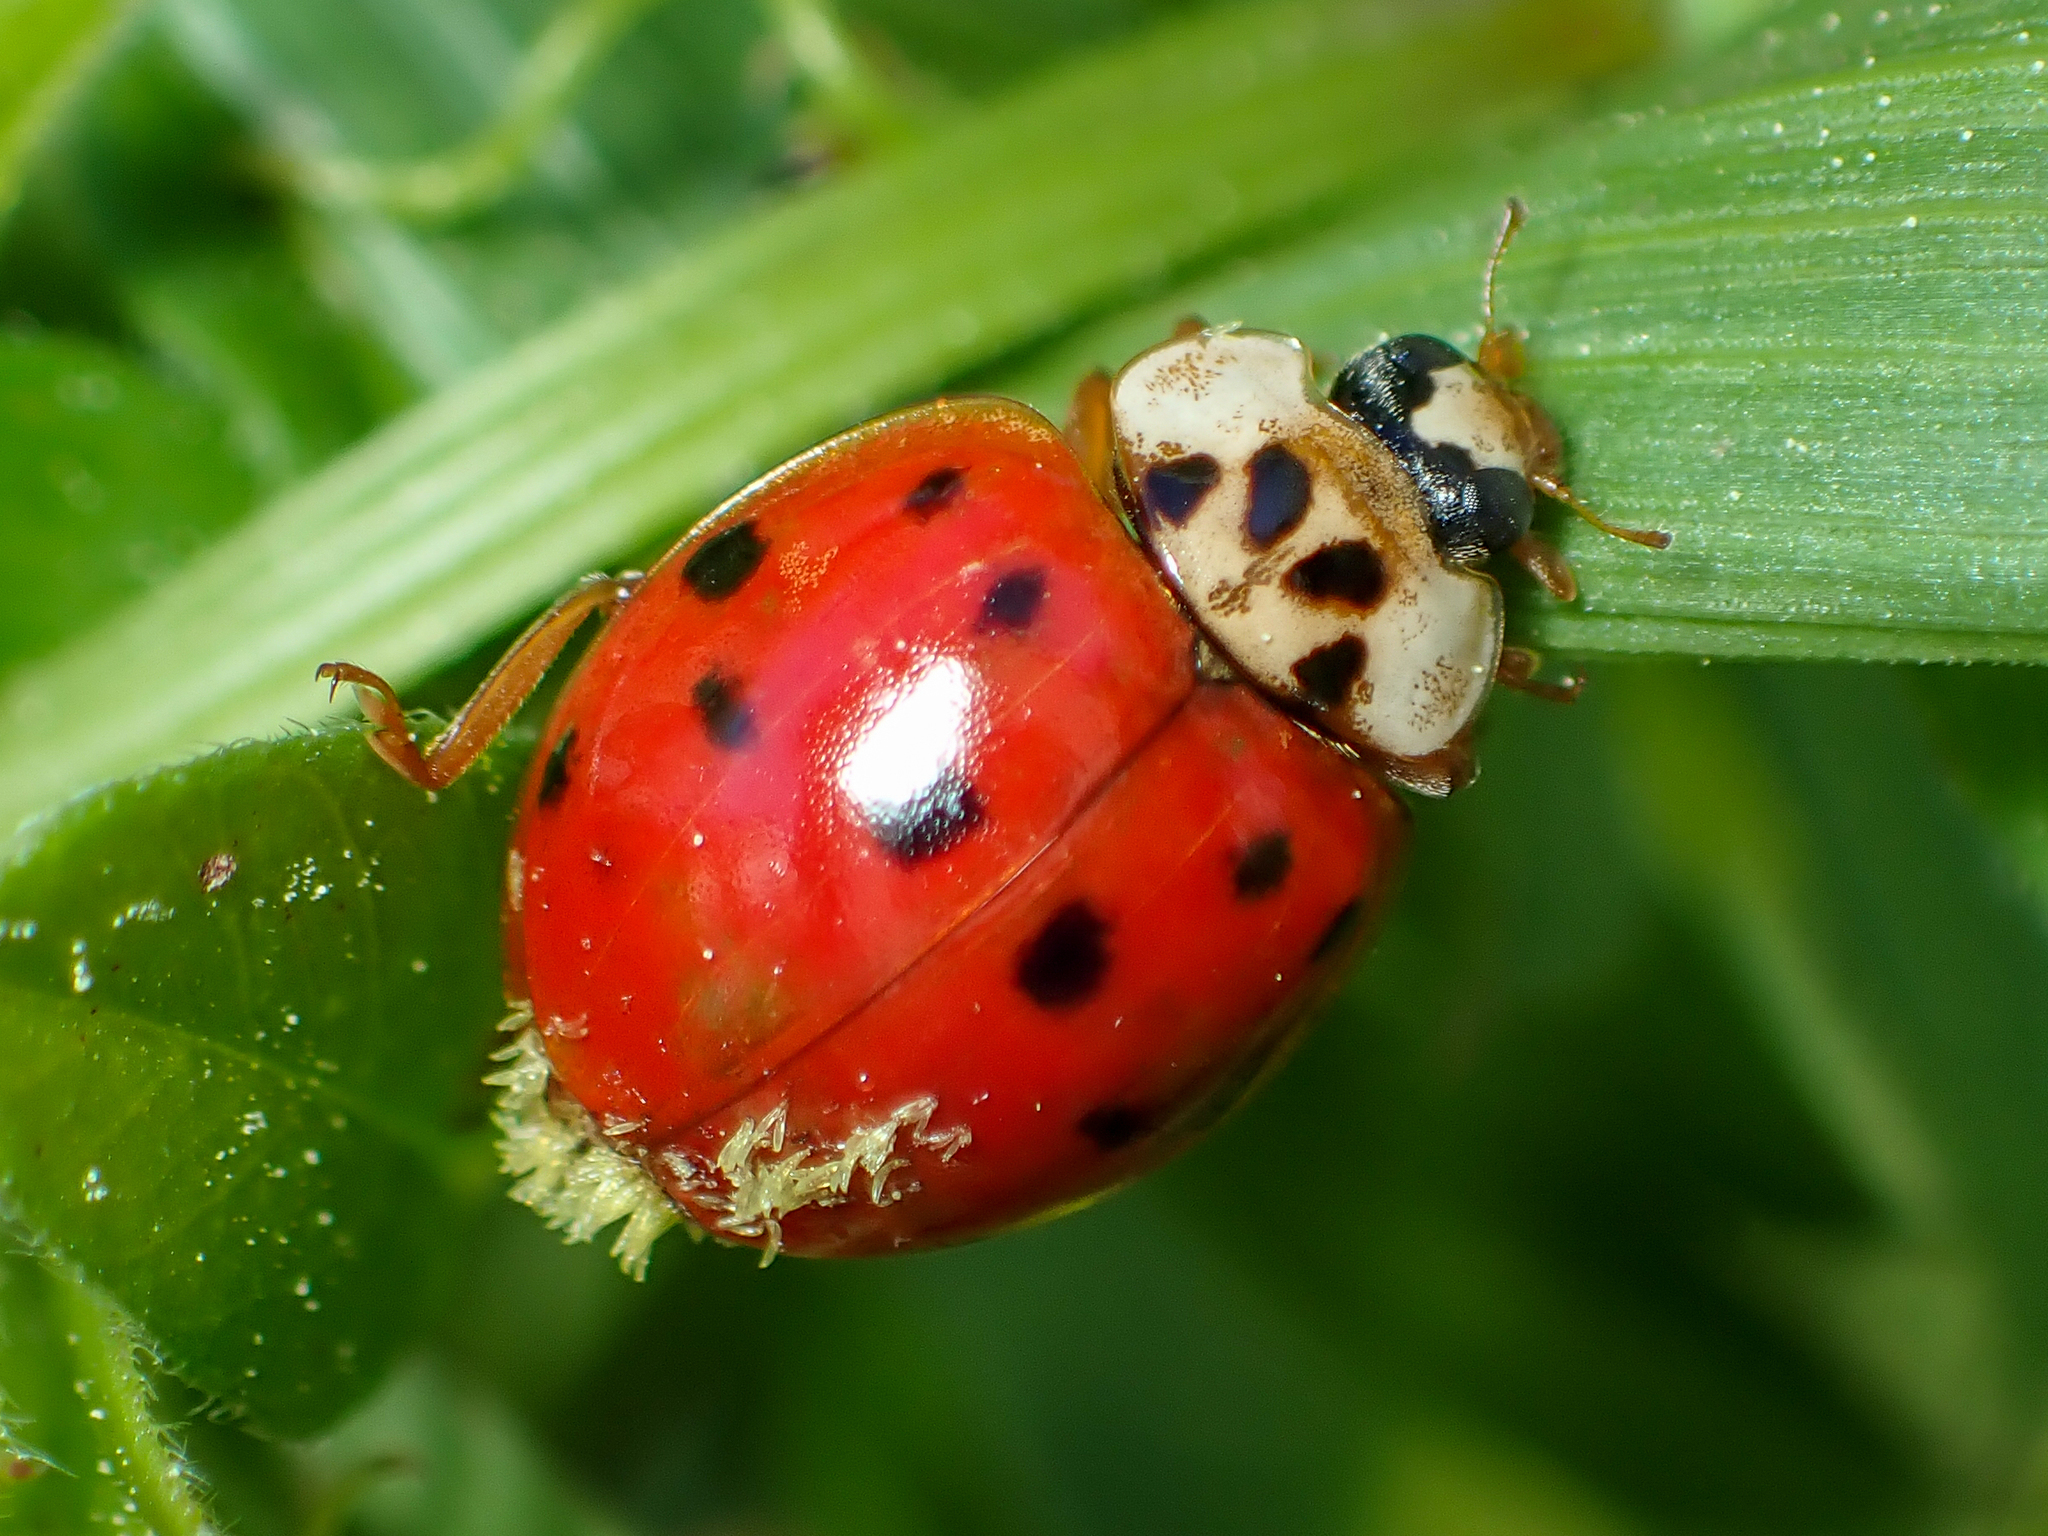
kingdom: Fungi
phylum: Ascomycota
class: Laboulbeniomycetes
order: Laboulbeniales
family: Laboulbeniaceae
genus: Hesperomyces
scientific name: Hesperomyces harmoniae
